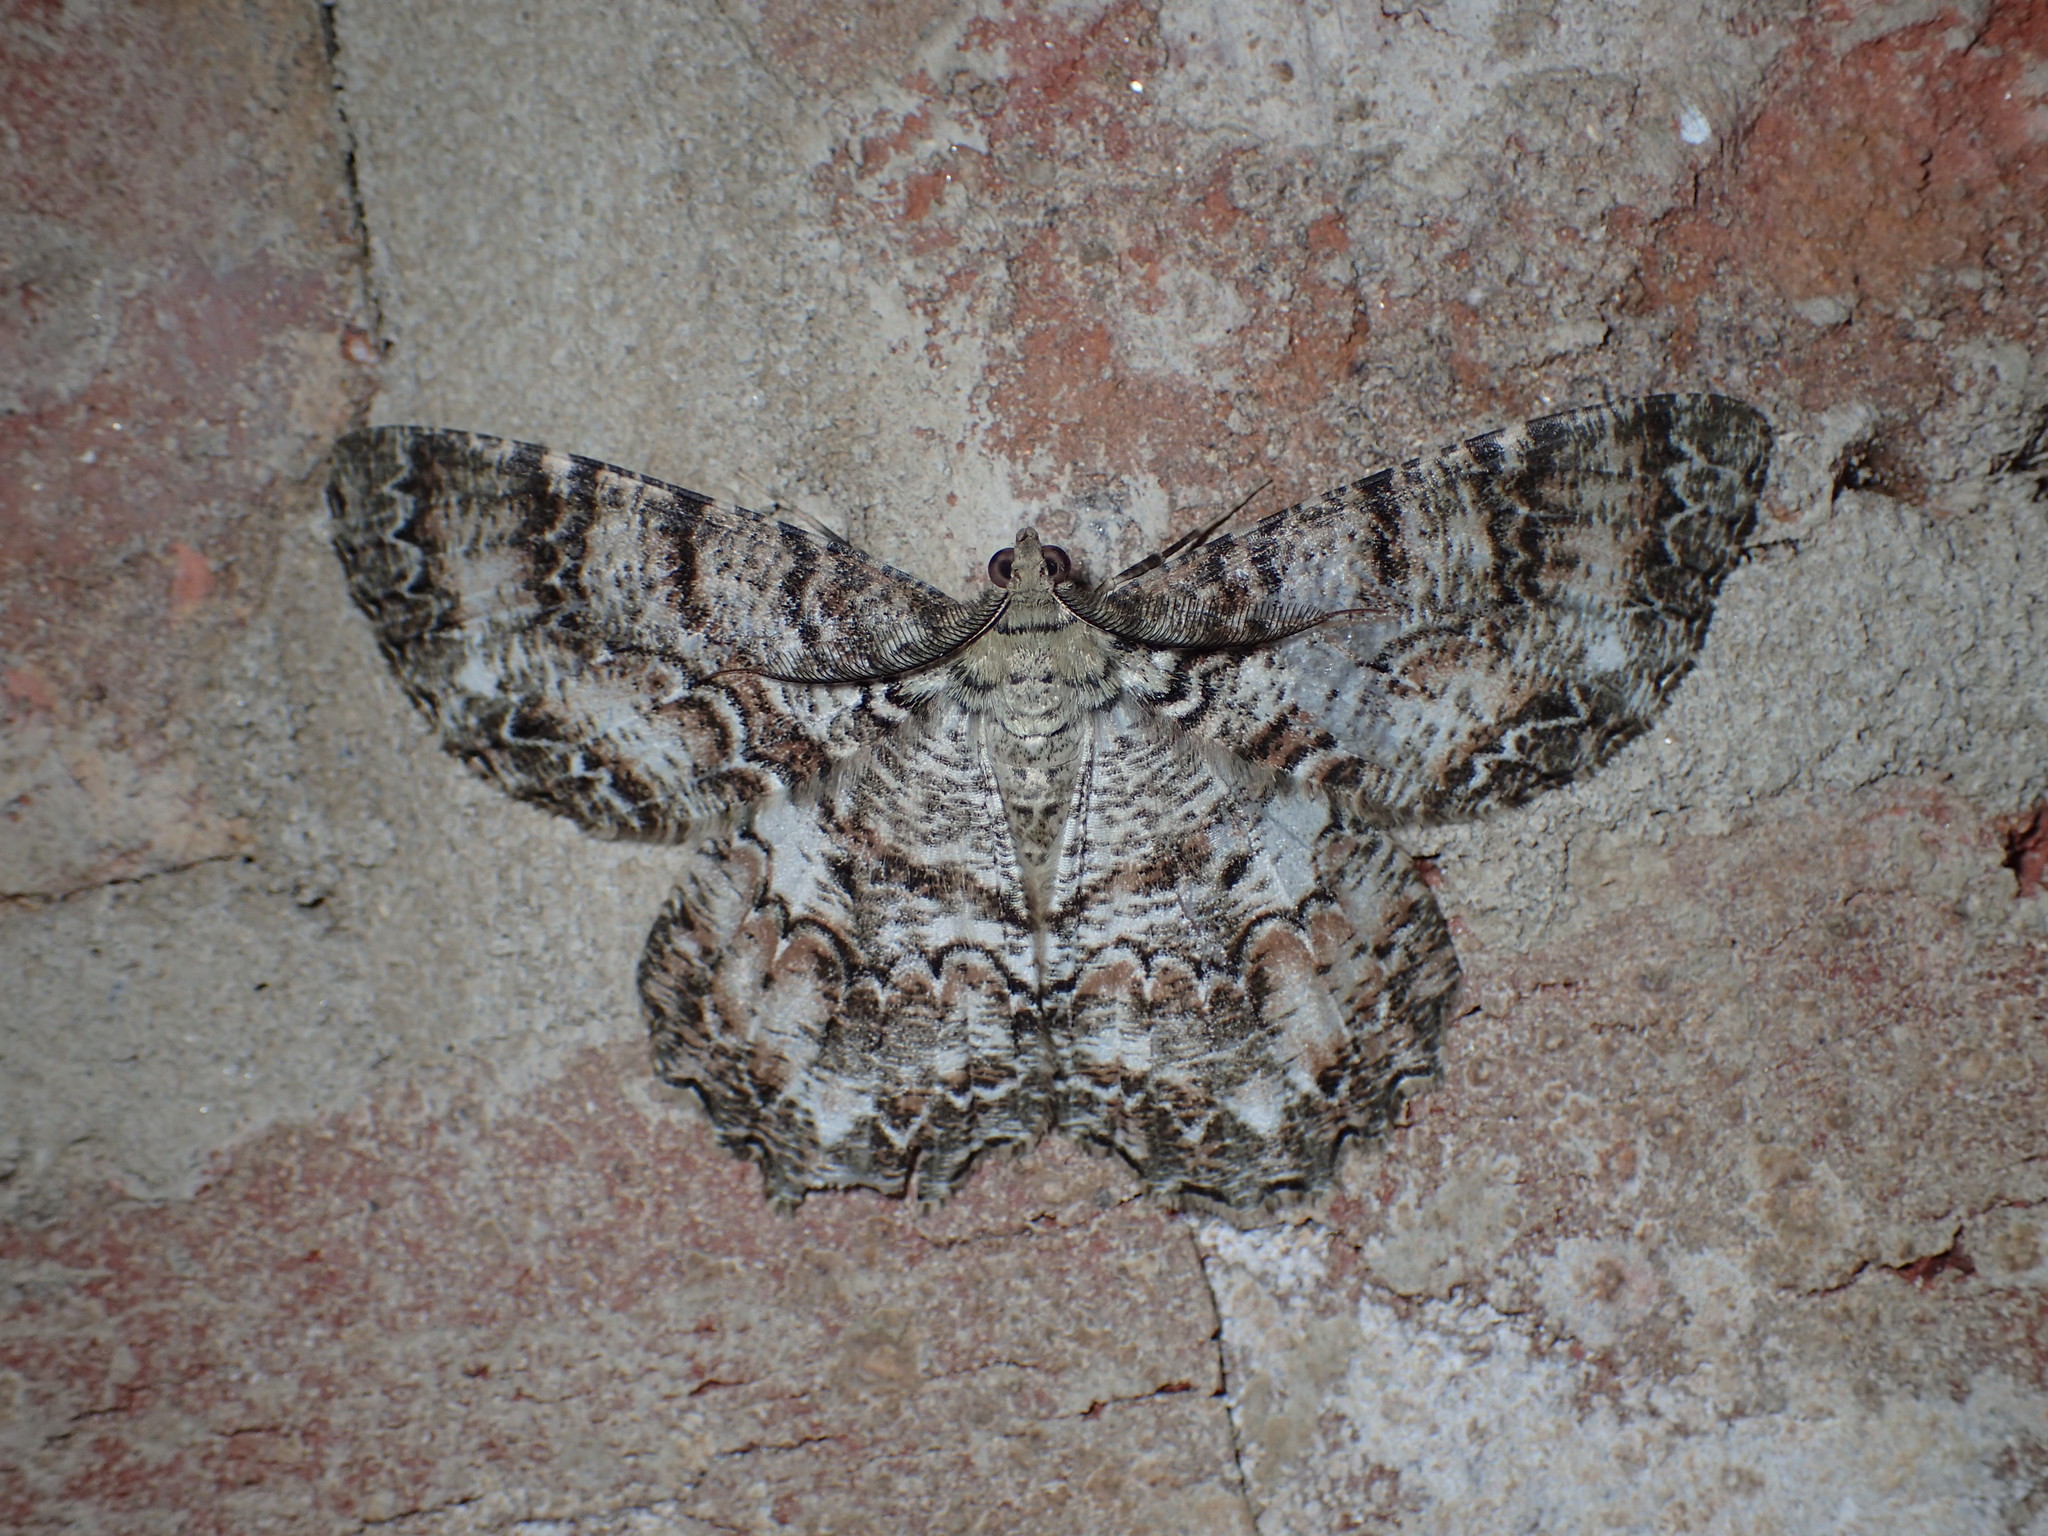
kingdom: Animalia
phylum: Arthropoda
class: Insecta
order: Lepidoptera
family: Geometridae
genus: Epimecis
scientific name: Epimecis hortaria
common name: Tulip-tree beauty
